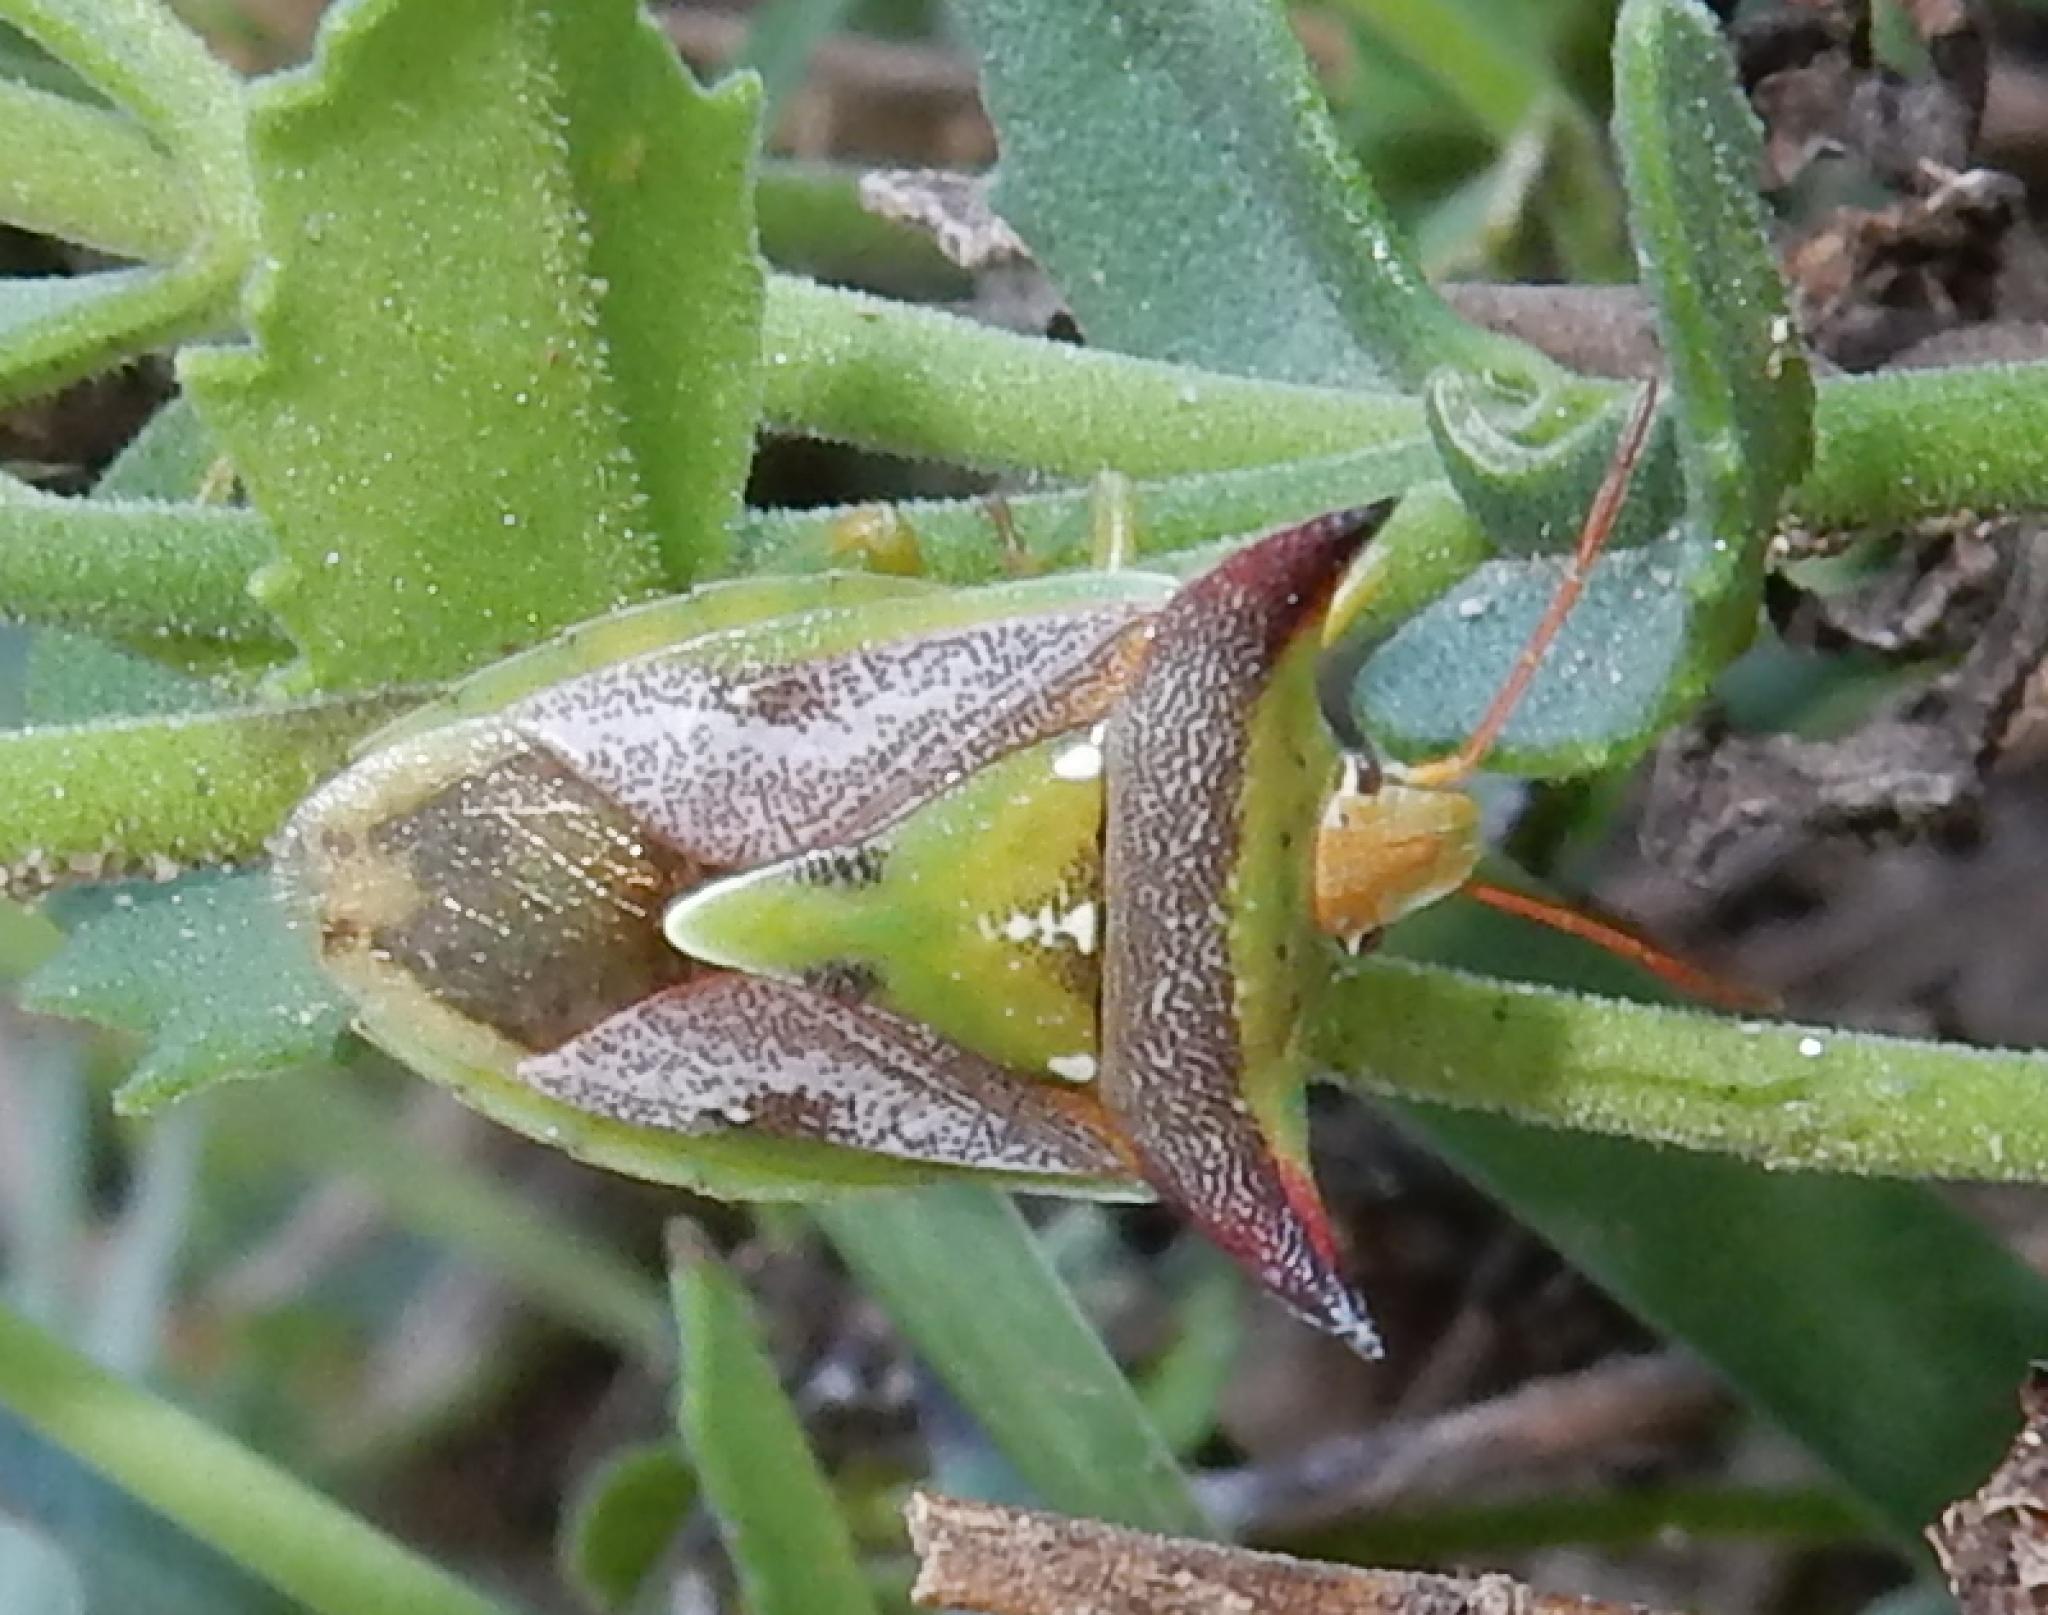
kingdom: Animalia
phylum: Arthropoda
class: Insecta
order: Hemiptera
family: Pentatomidae
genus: Veterna
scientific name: Veterna
